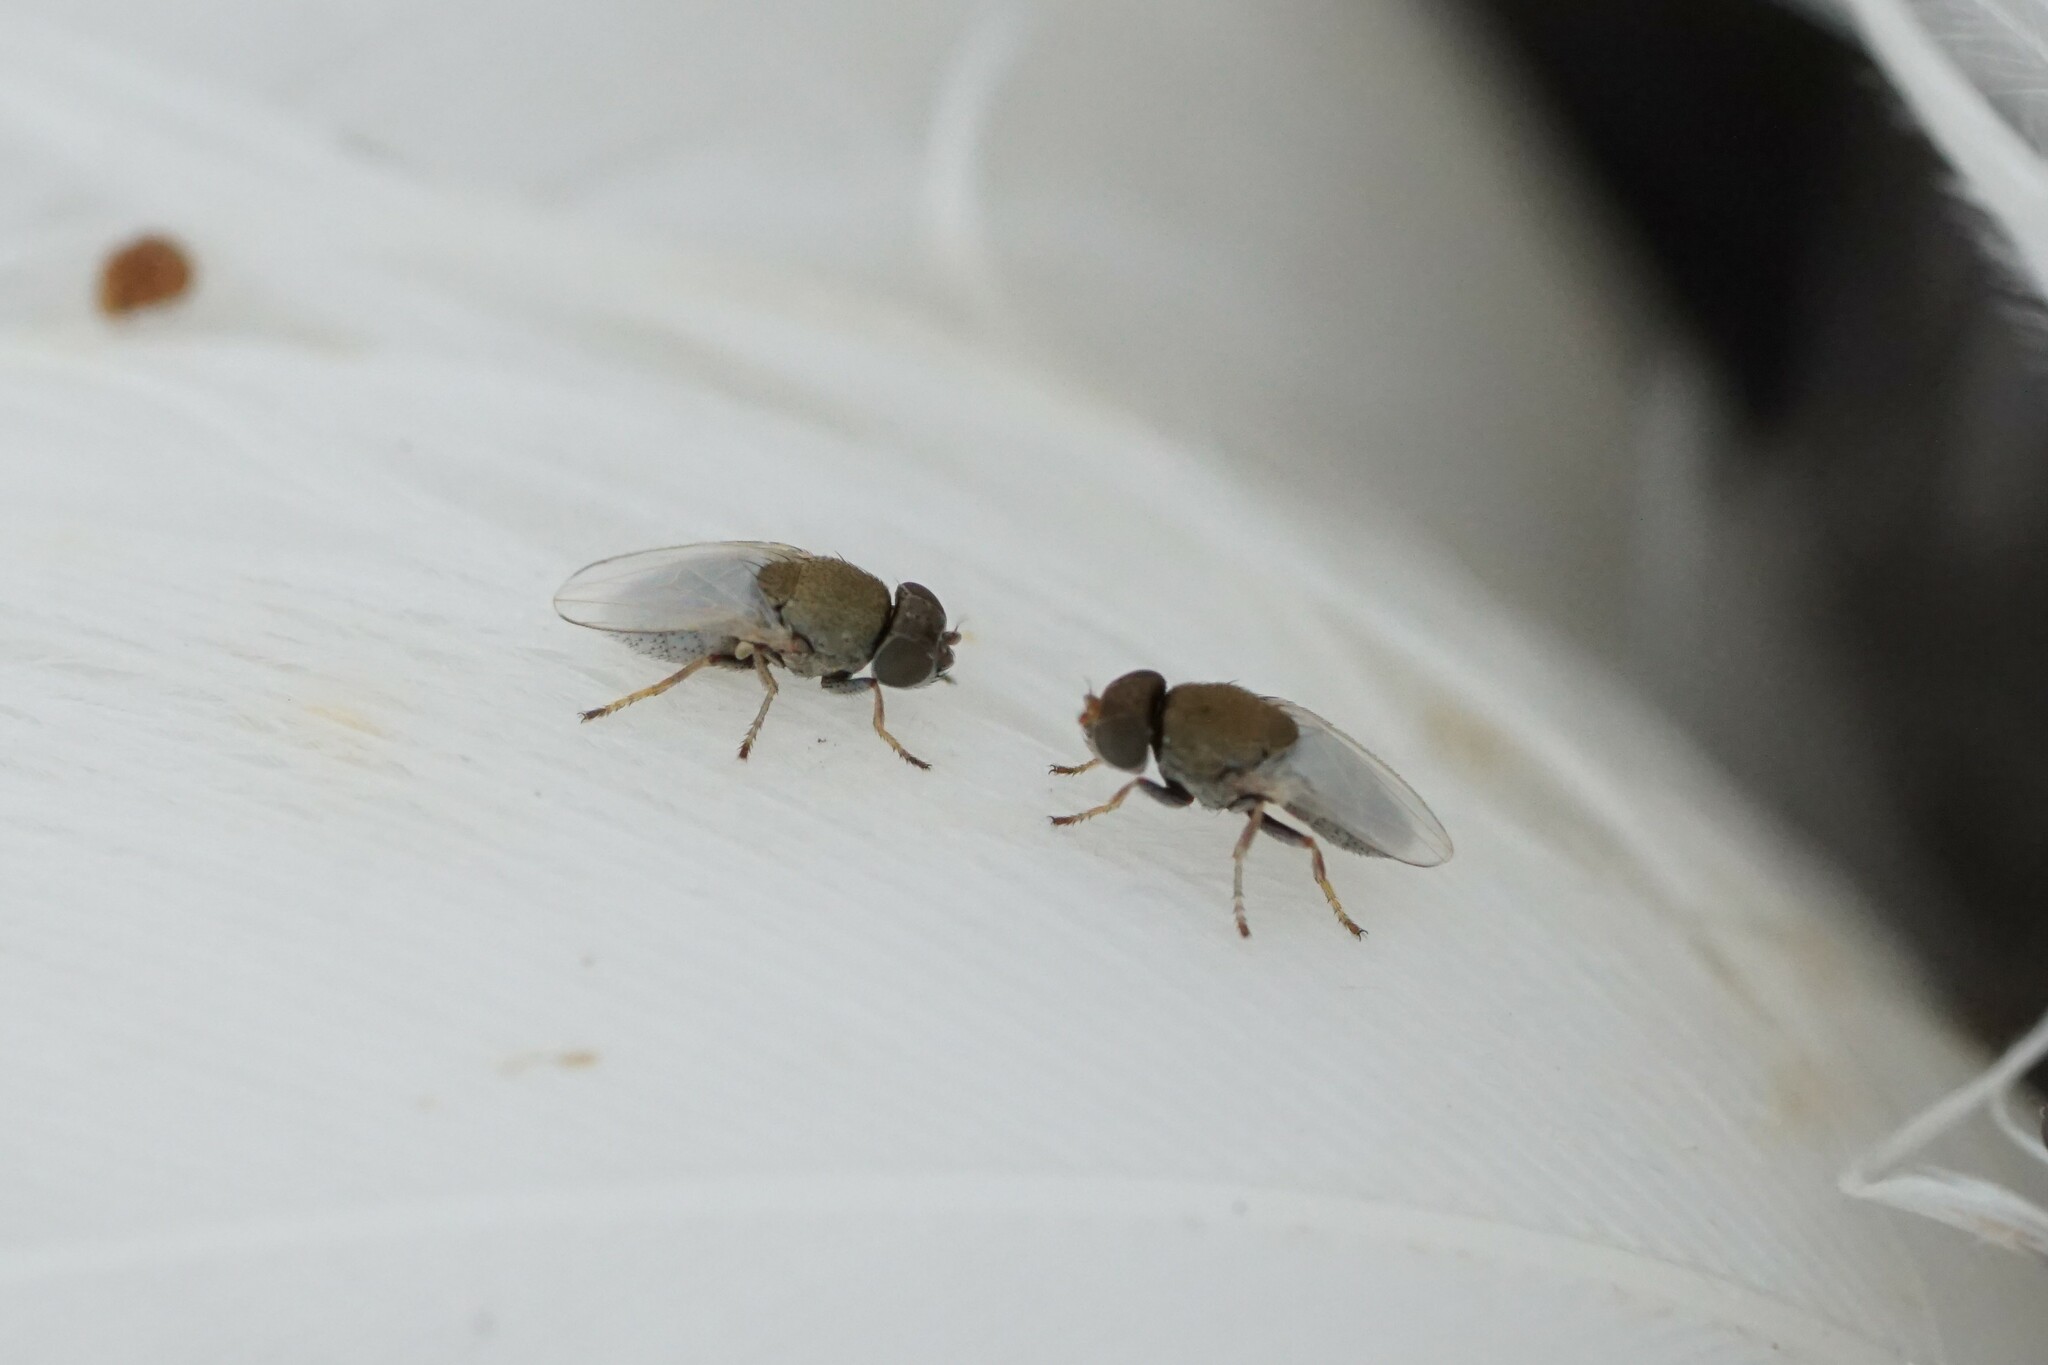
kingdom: Animalia
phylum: Arthropoda
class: Insecta
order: Diptera
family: Ephydridae
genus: Hecamede
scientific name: Hecamede albicans
